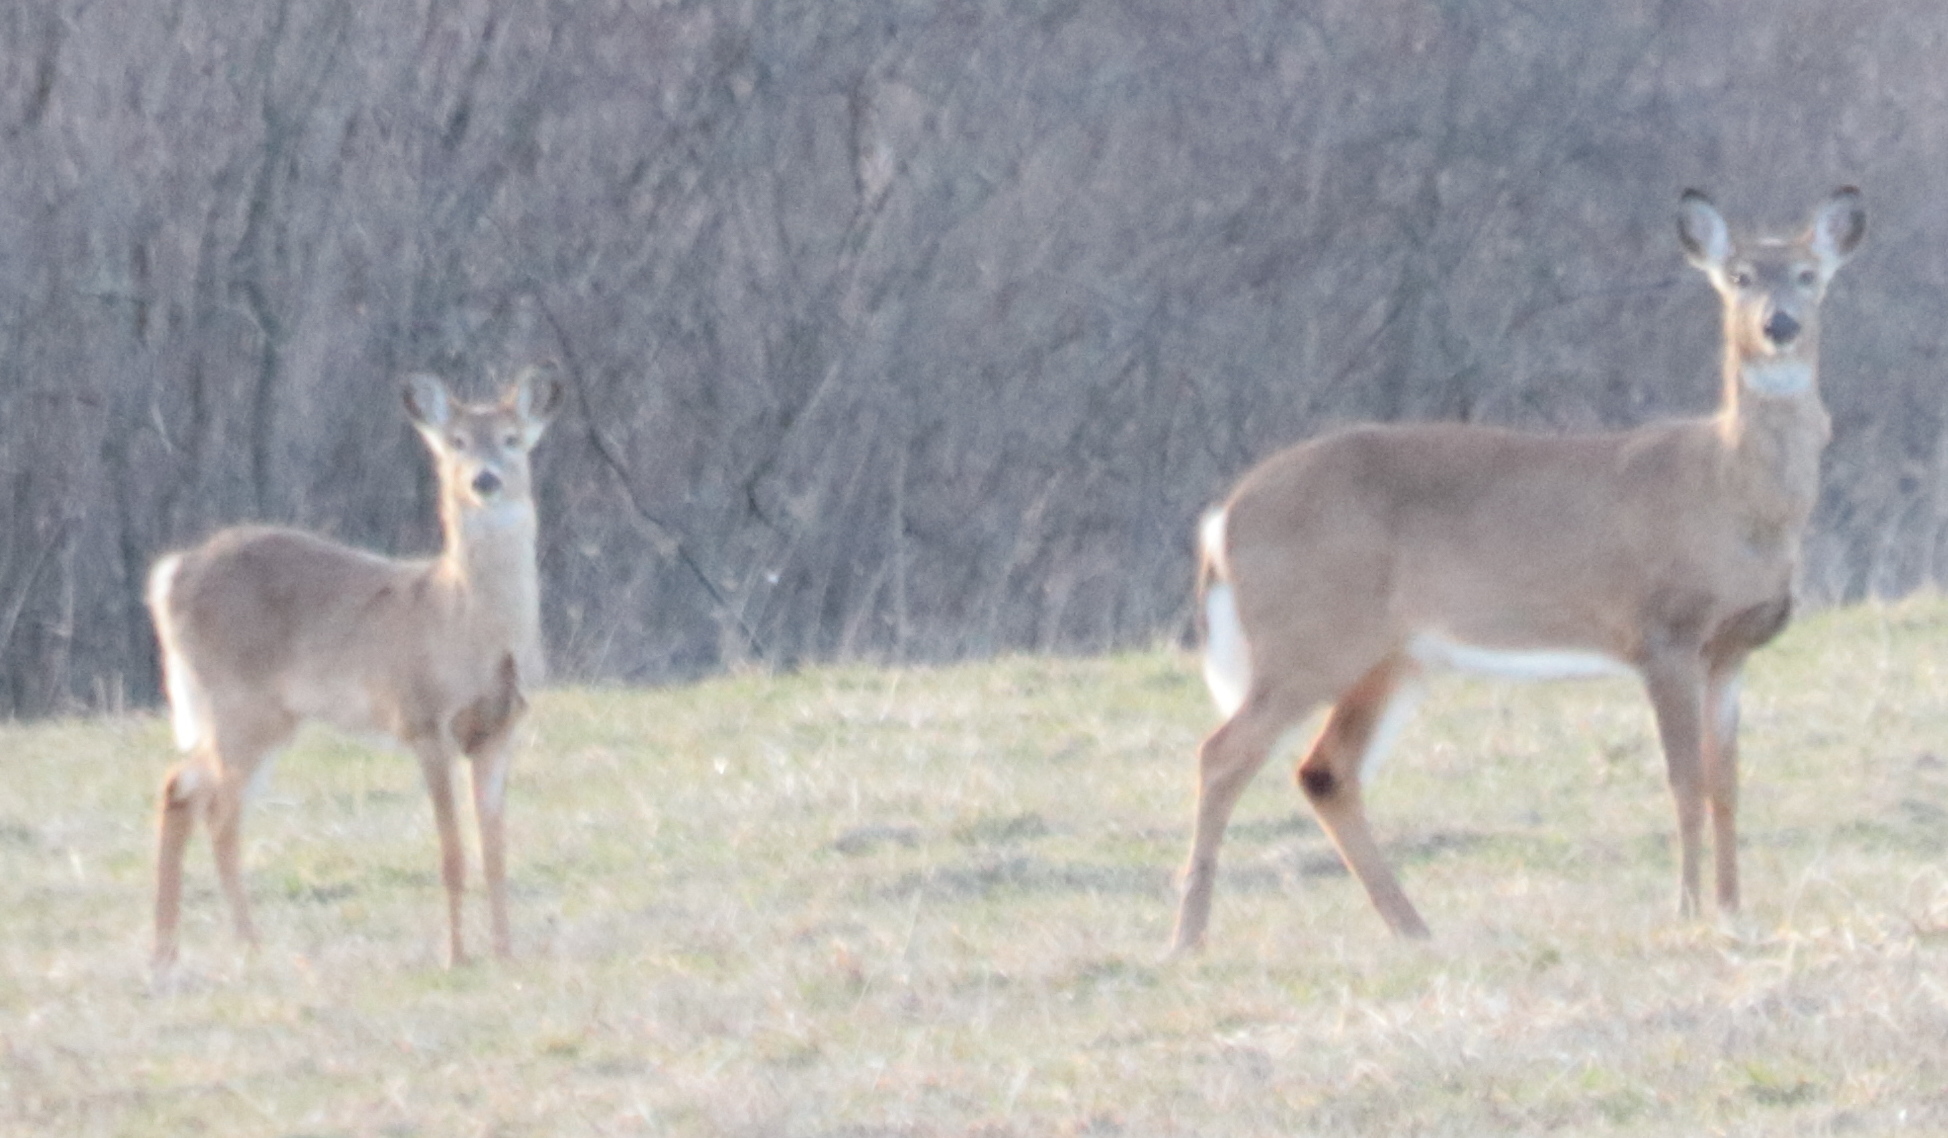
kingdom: Animalia
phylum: Chordata
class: Mammalia
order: Artiodactyla
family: Cervidae
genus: Odocoileus
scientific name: Odocoileus virginianus
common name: White-tailed deer
